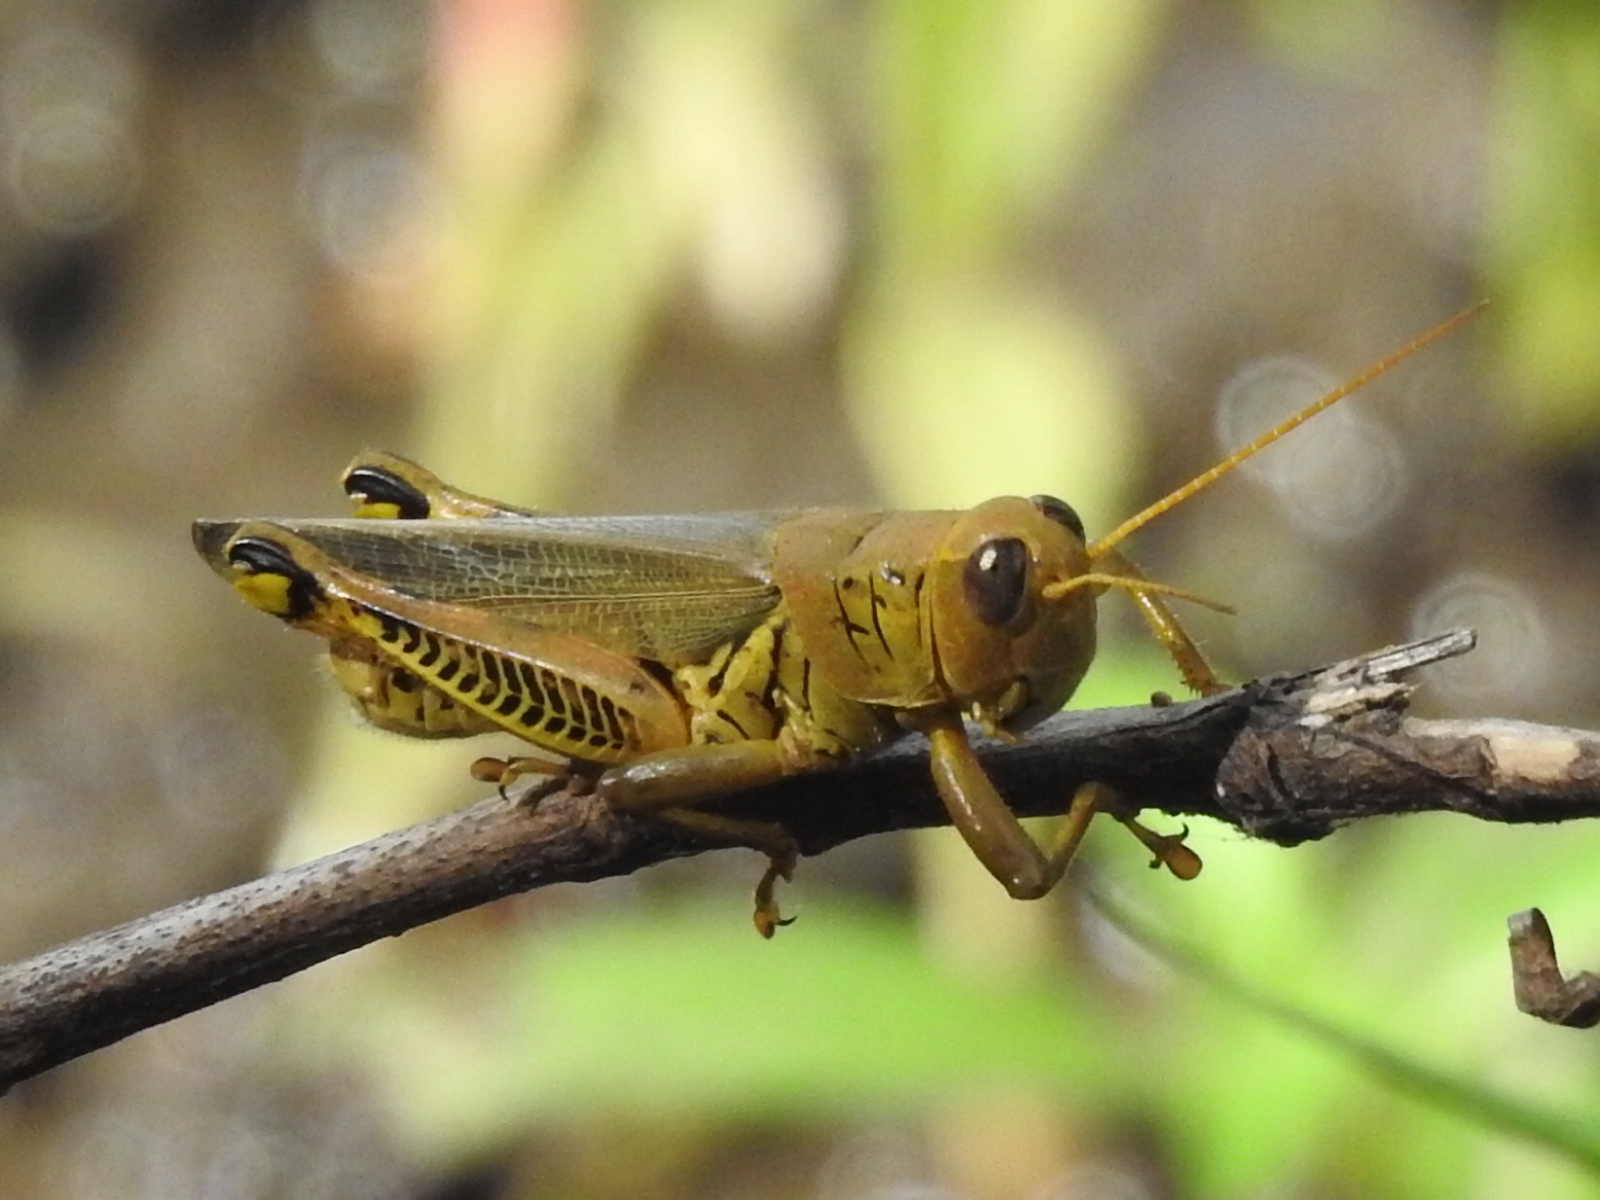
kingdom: Animalia
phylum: Arthropoda
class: Insecta
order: Orthoptera
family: Acrididae
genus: Melanoplus
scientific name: Melanoplus differentialis
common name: Differential grasshopper
